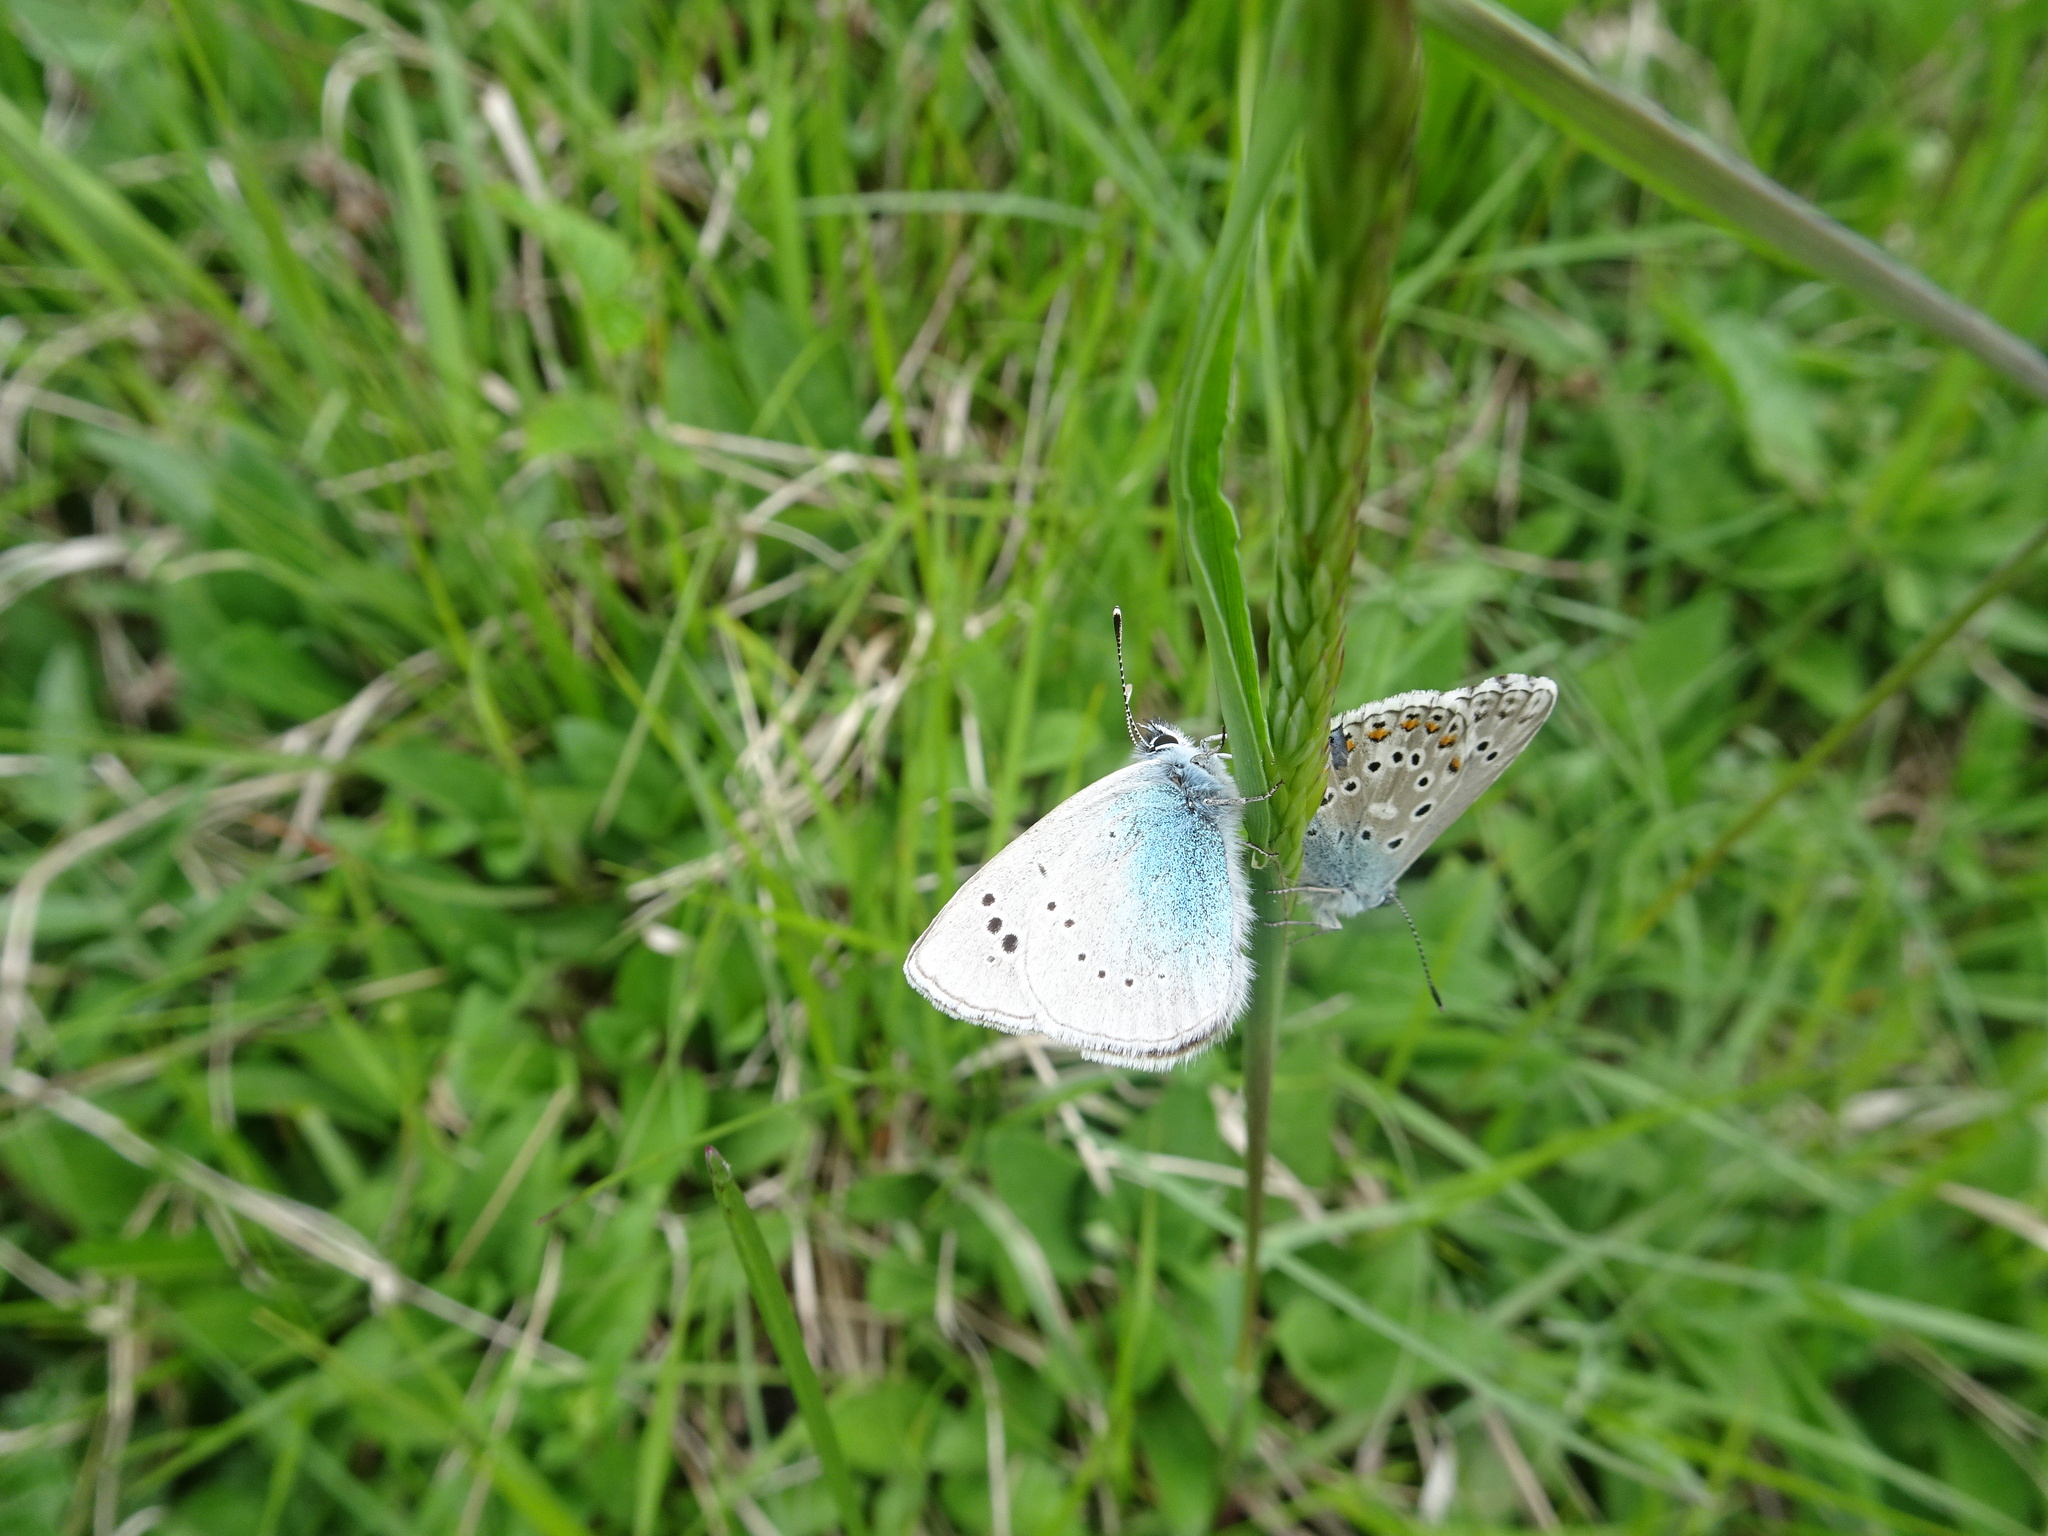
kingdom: Animalia
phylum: Arthropoda
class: Insecta
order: Lepidoptera
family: Lycaenidae
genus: Glaucopsyche
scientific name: Glaucopsyche alexis
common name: Green-underside blue
